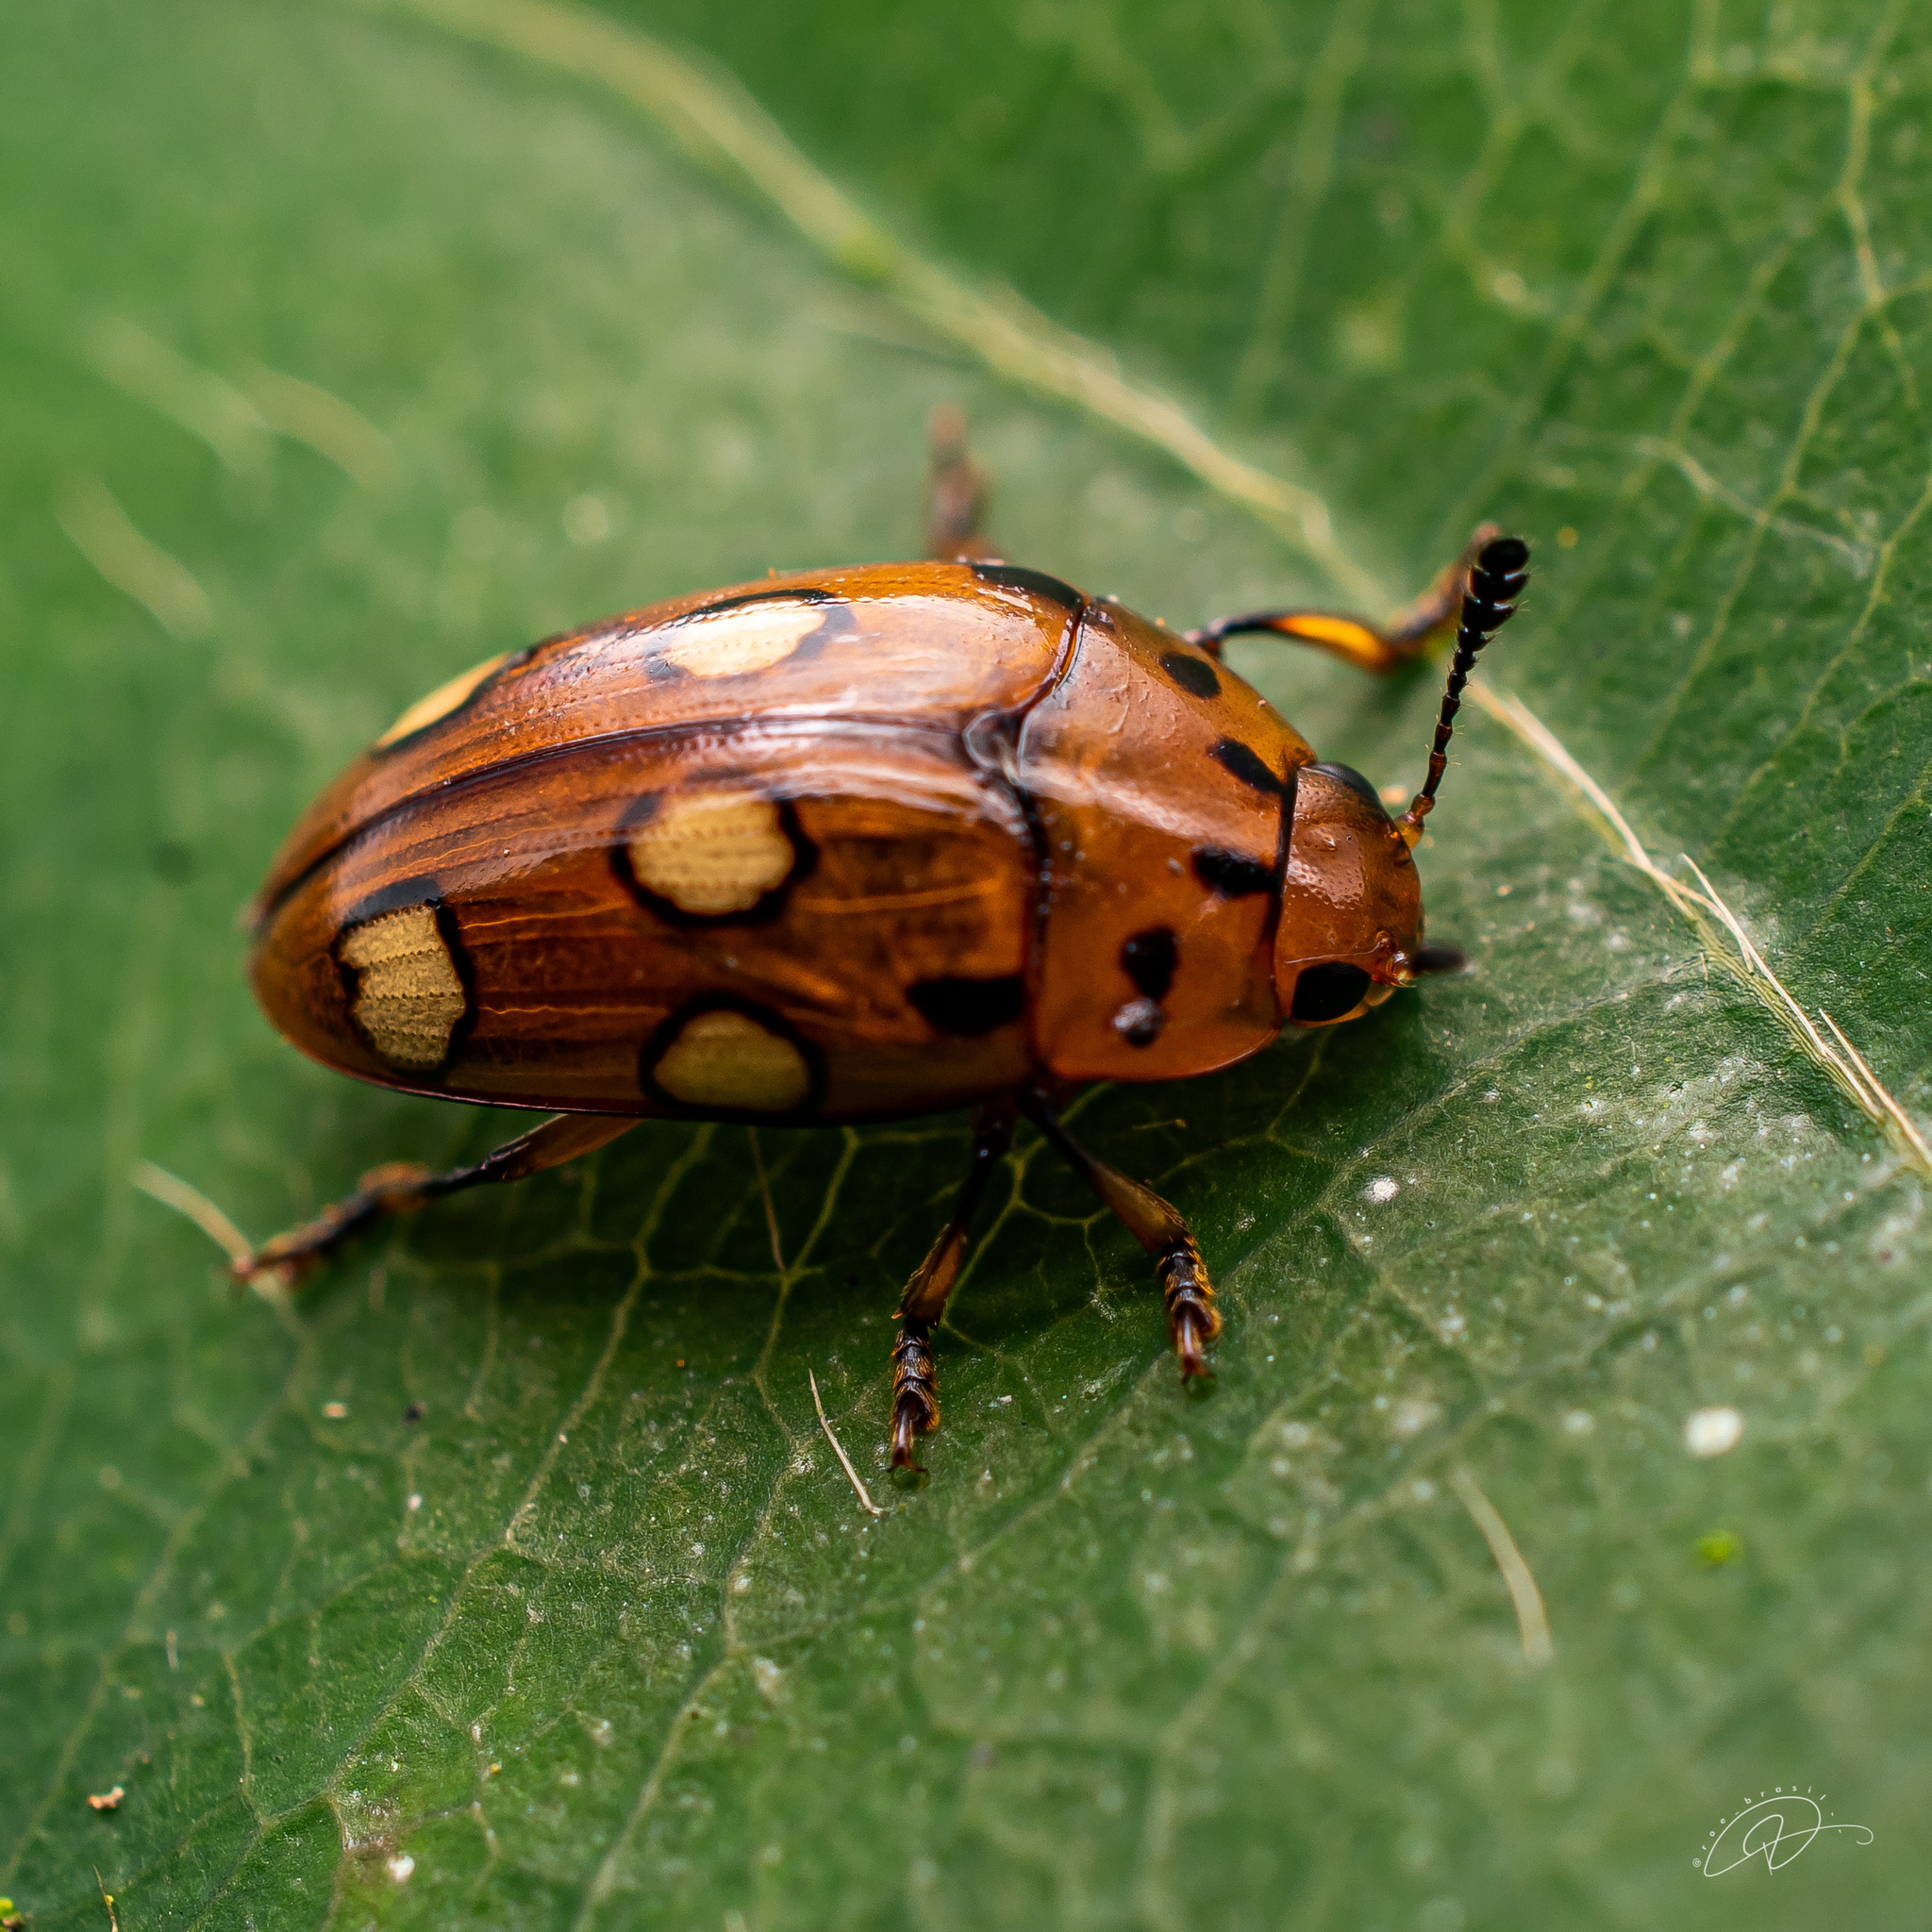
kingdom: Animalia
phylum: Arthropoda
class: Insecta
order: Coleoptera
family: Erotylidae
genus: Mycotretus
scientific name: Mycotretus sexoculatus
